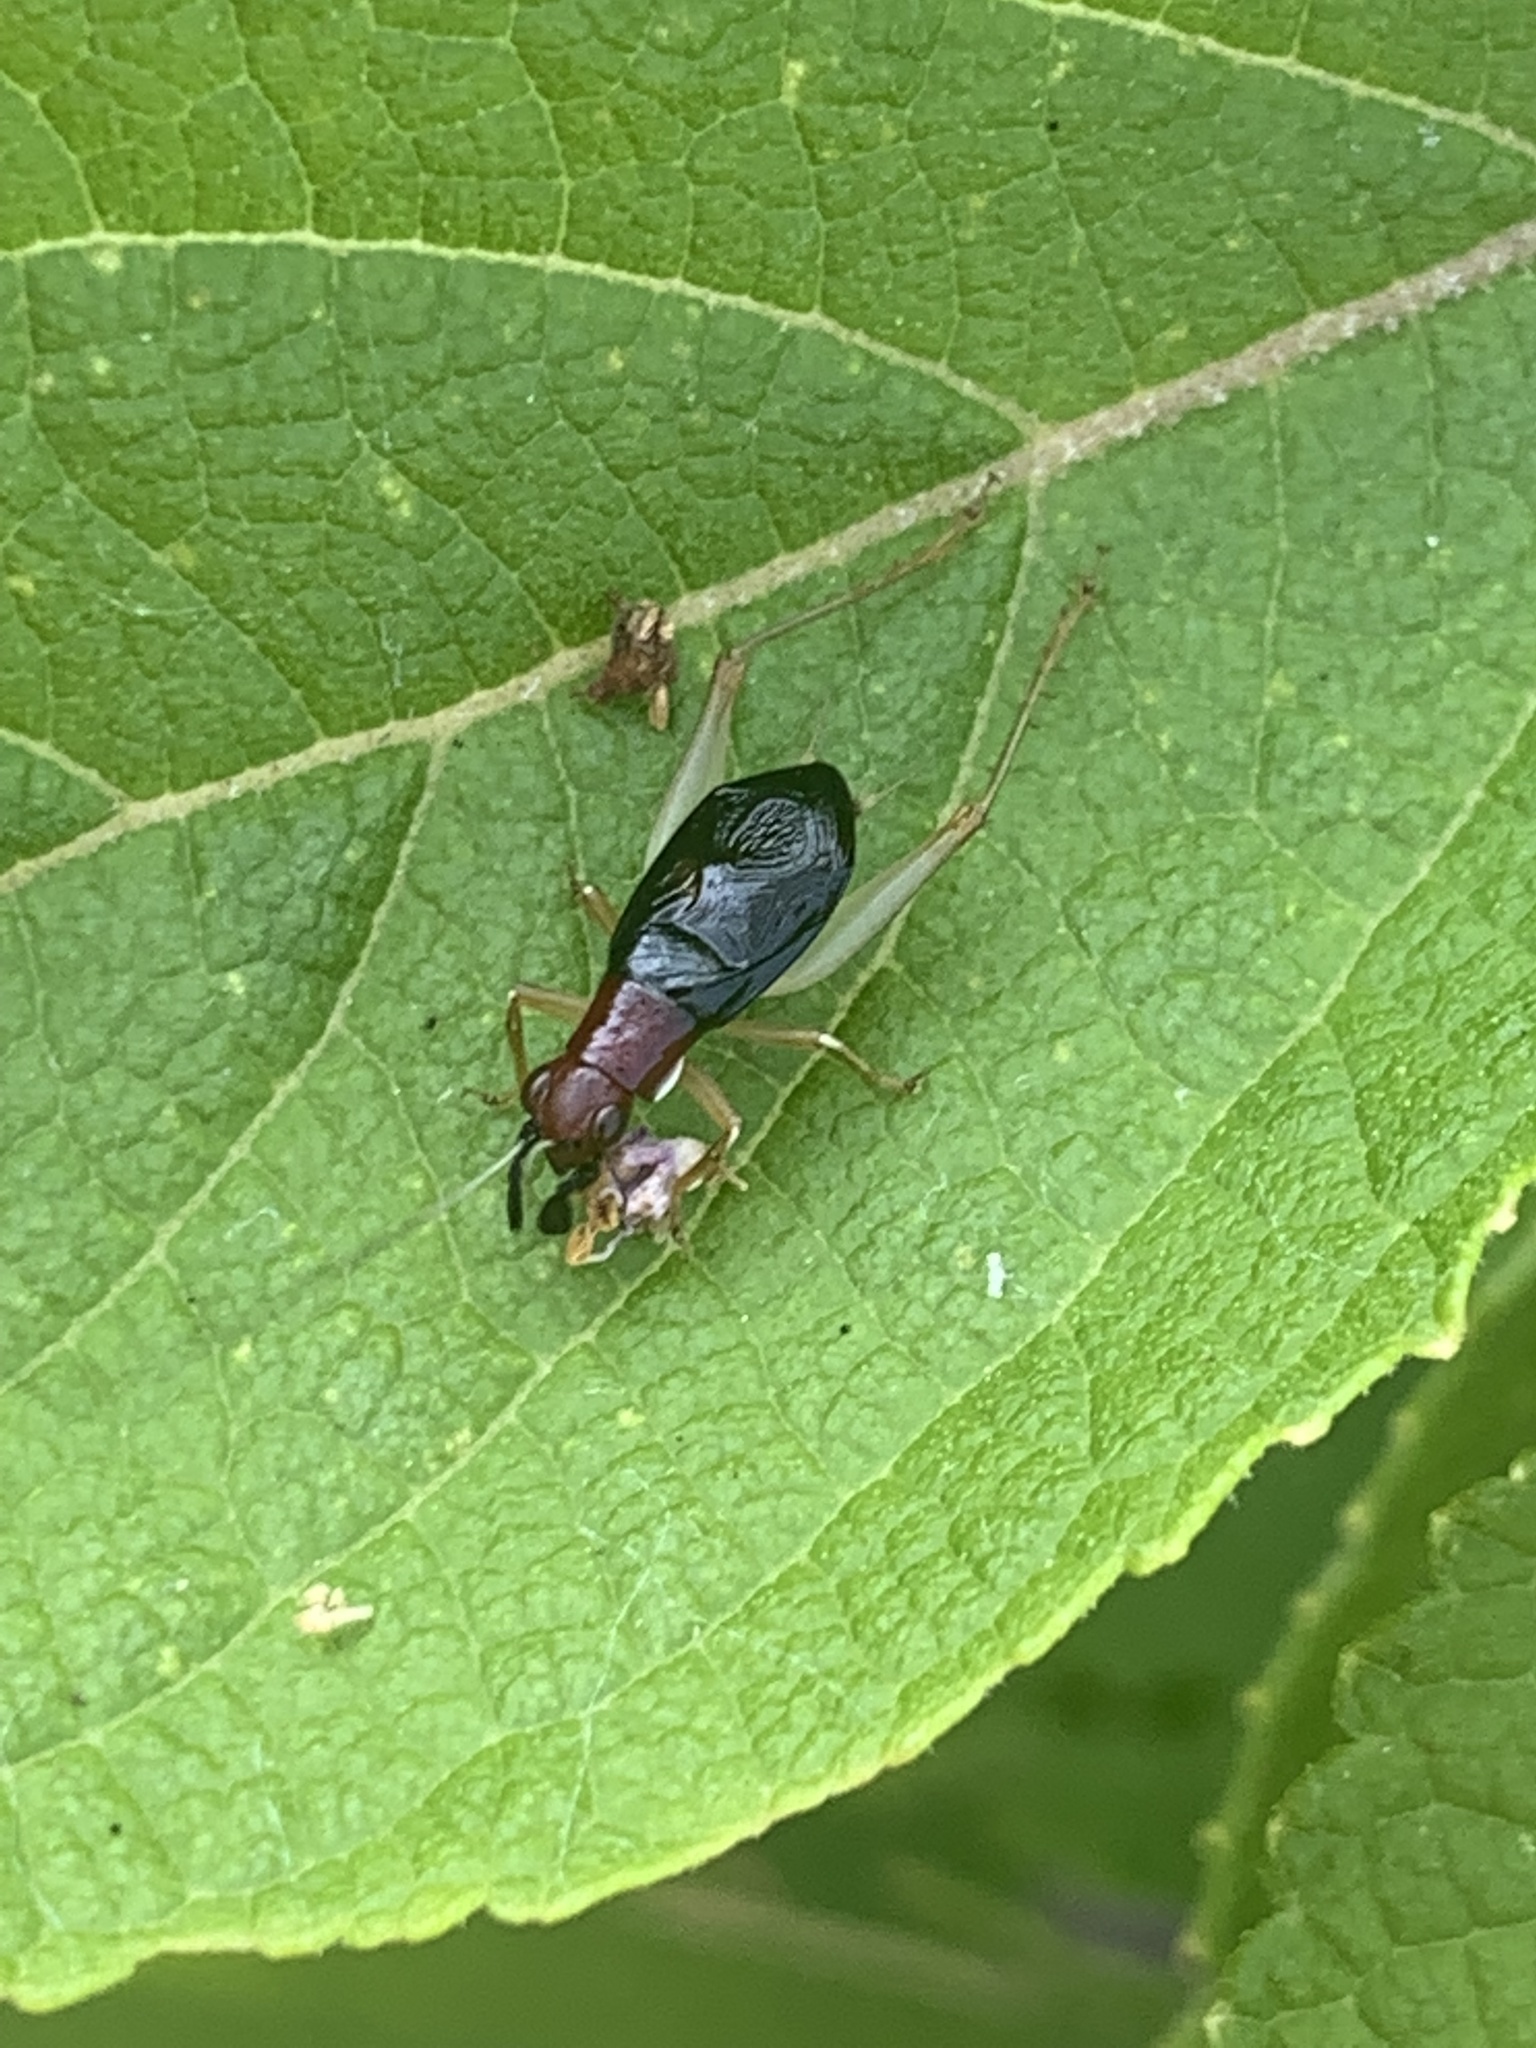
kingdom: Animalia
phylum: Arthropoda
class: Insecta
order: Orthoptera
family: Trigonidiidae
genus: Phyllopalpus
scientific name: Phyllopalpus pulchellus
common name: Handsome trig
